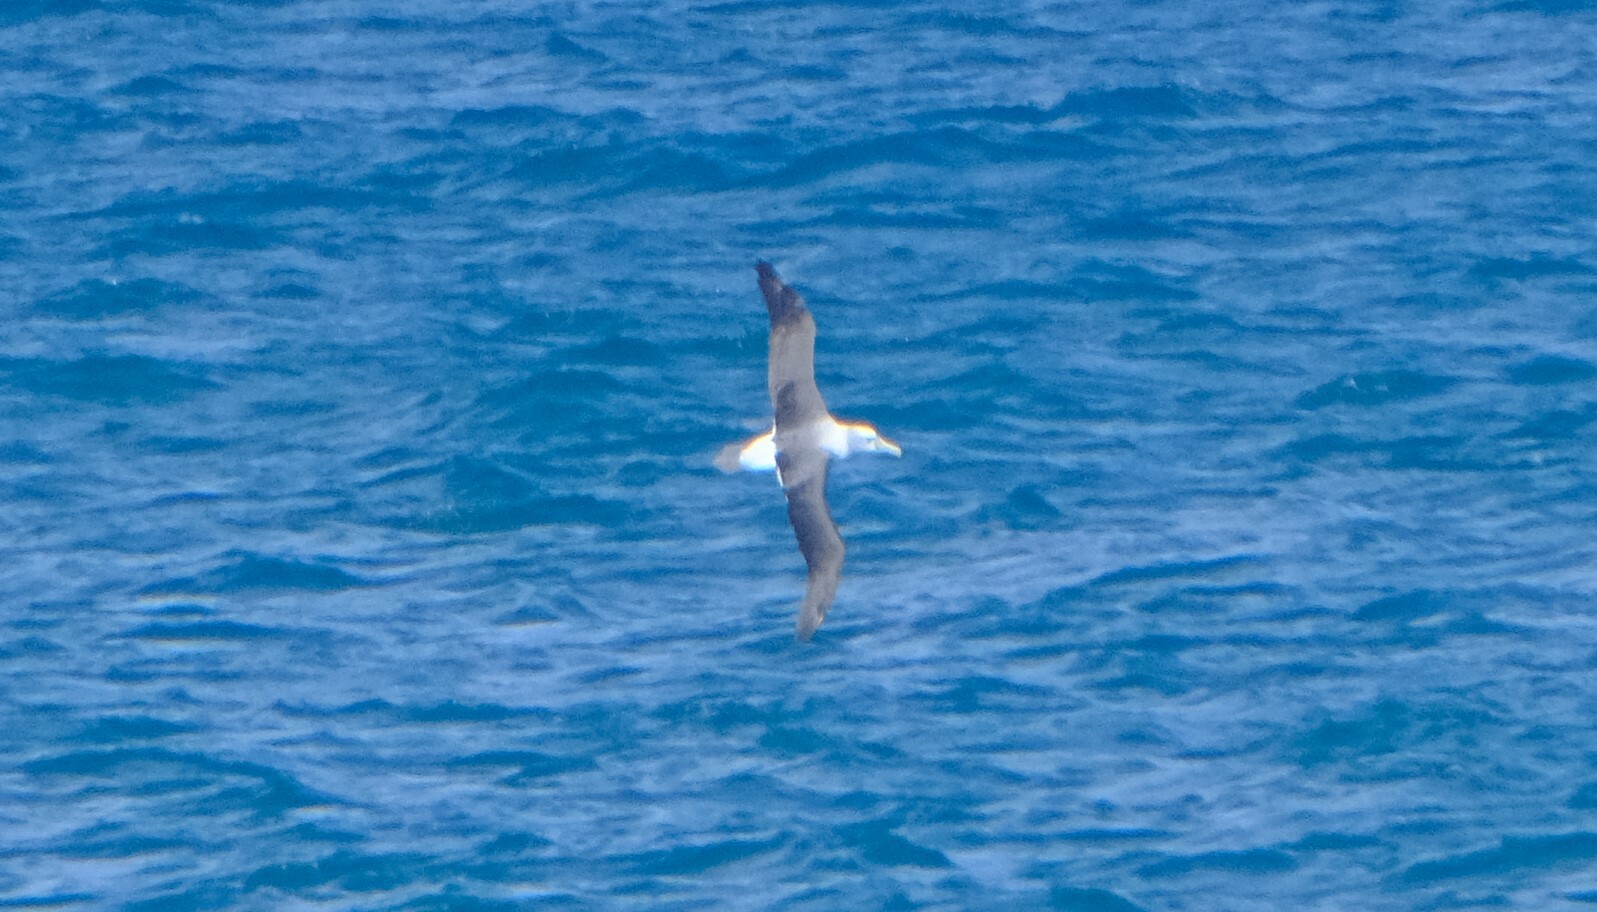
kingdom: Animalia
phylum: Chordata
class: Aves
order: Procellariiformes
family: Diomedeidae
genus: Thalassarche
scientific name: Thalassarche cauta
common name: Shy albatross
